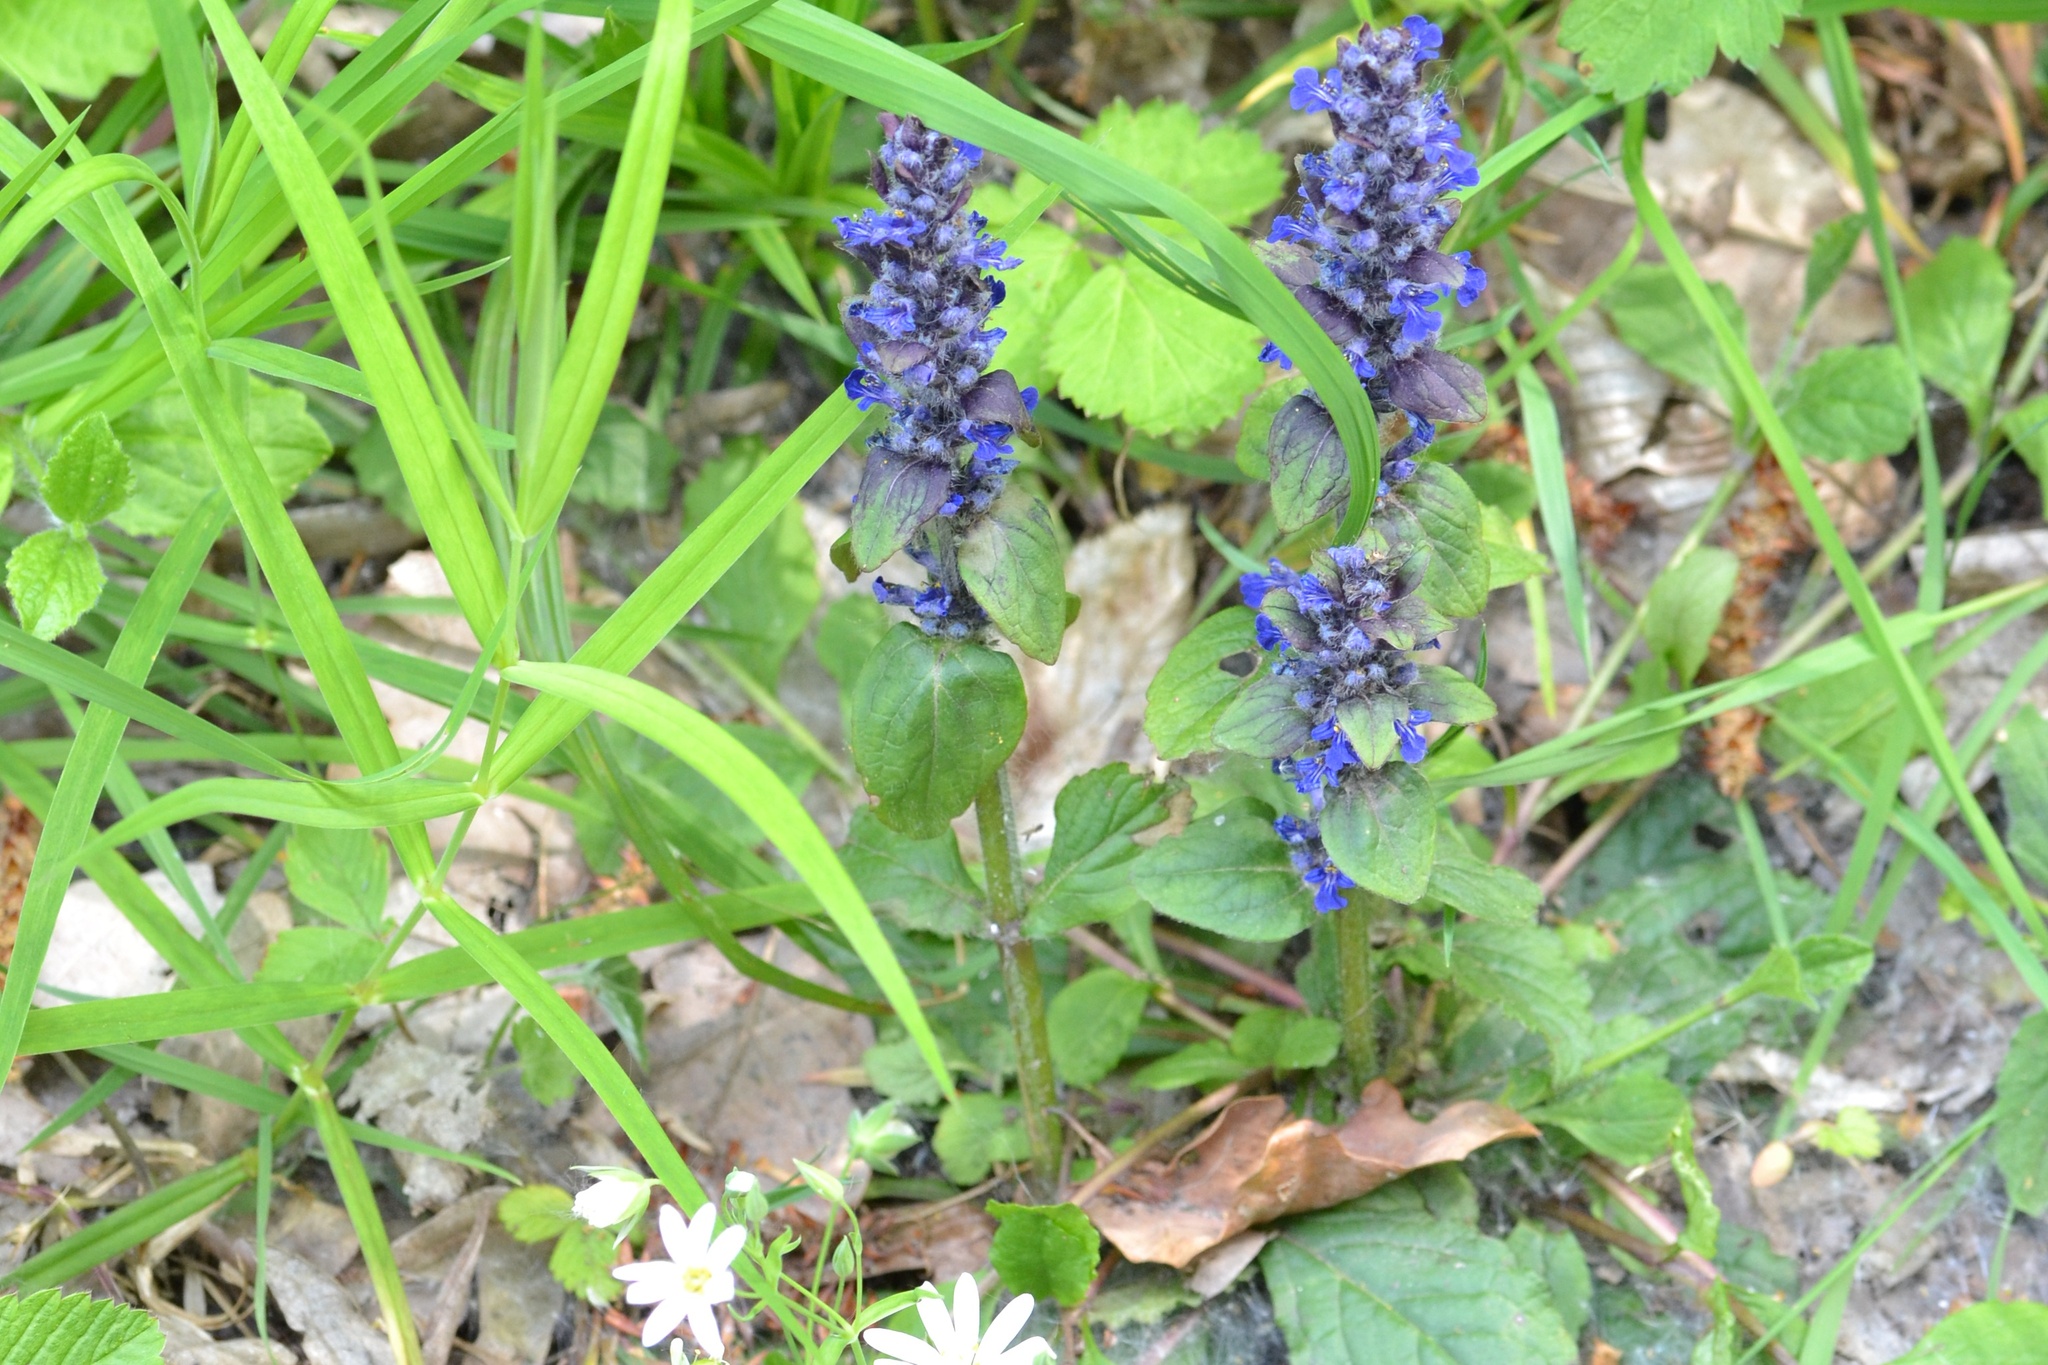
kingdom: Plantae
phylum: Tracheophyta
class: Magnoliopsida
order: Lamiales
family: Lamiaceae
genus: Ajuga
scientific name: Ajuga reptans
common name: Bugle
